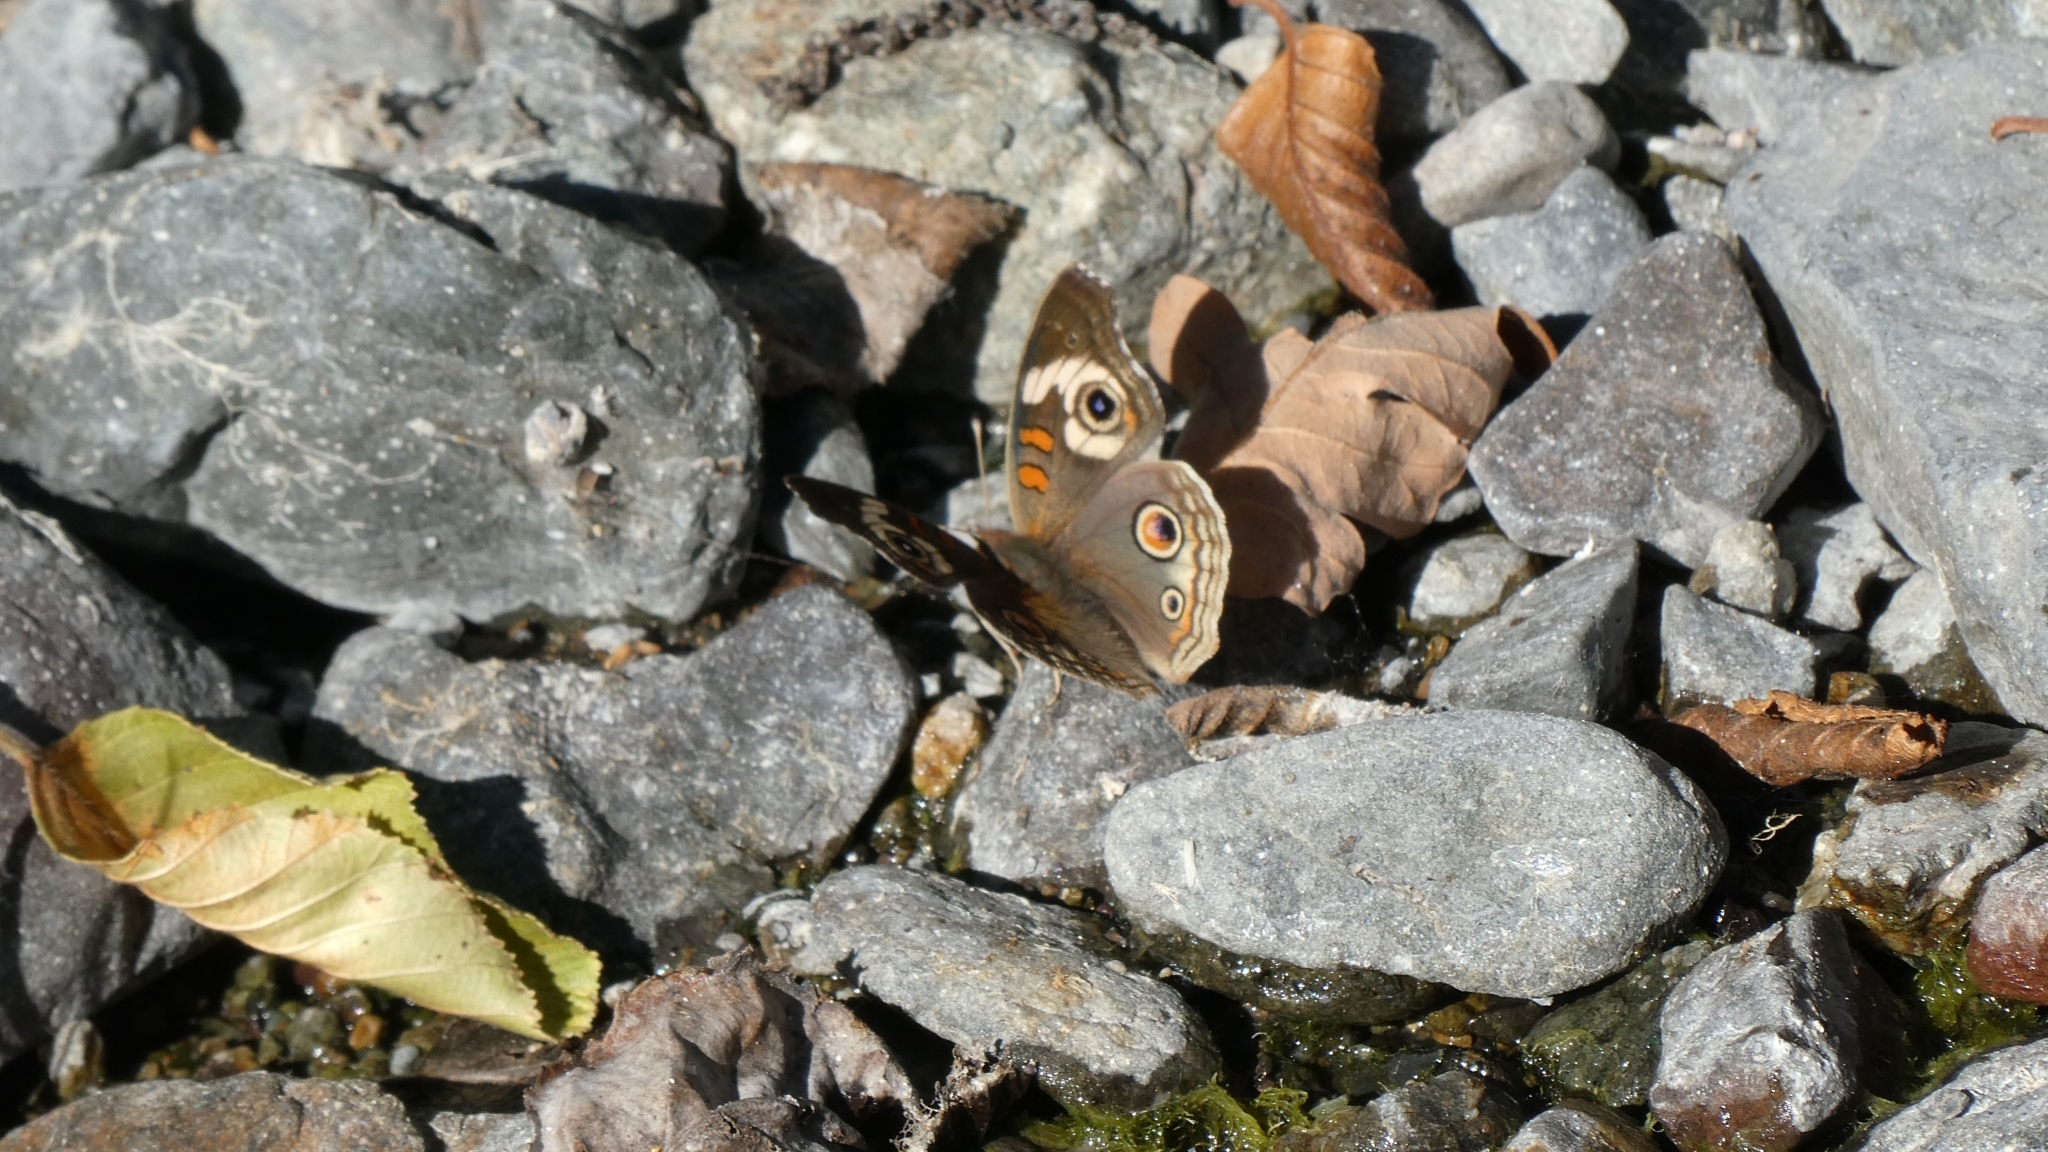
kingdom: Animalia
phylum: Arthropoda
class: Insecta
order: Lepidoptera
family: Nymphalidae
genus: Junonia
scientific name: Junonia grisea
